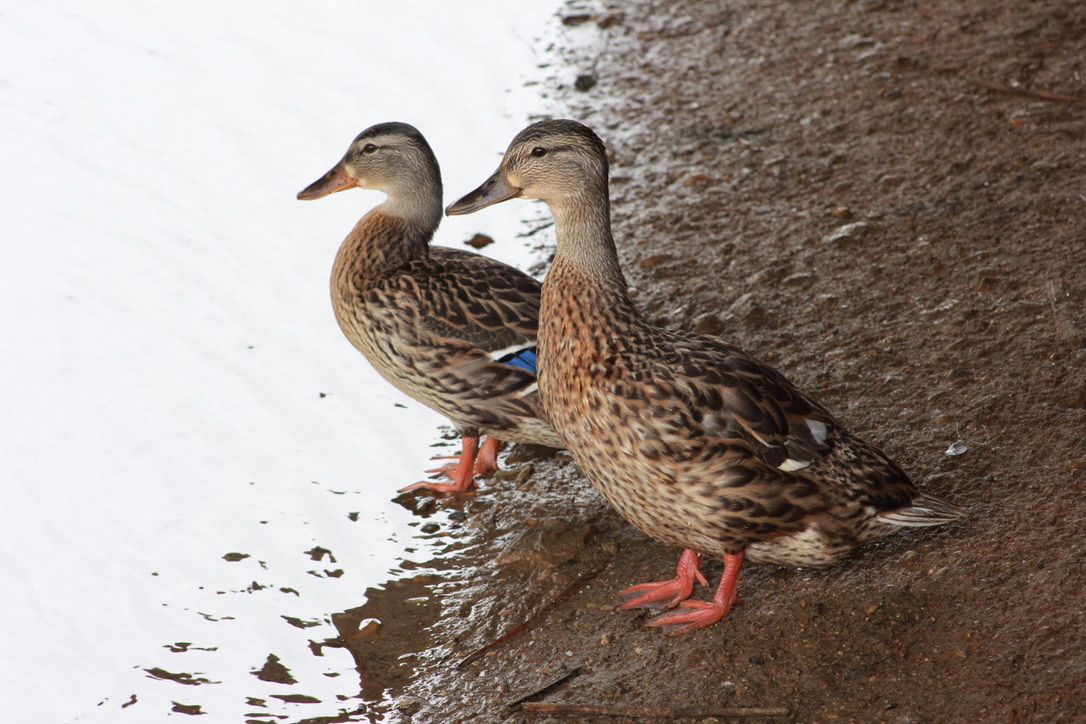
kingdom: Animalia
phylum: Chordata
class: Aves
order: Anseriformes
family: Anatidae
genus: Anas
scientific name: Anas platyrhynchos
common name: Mallard
